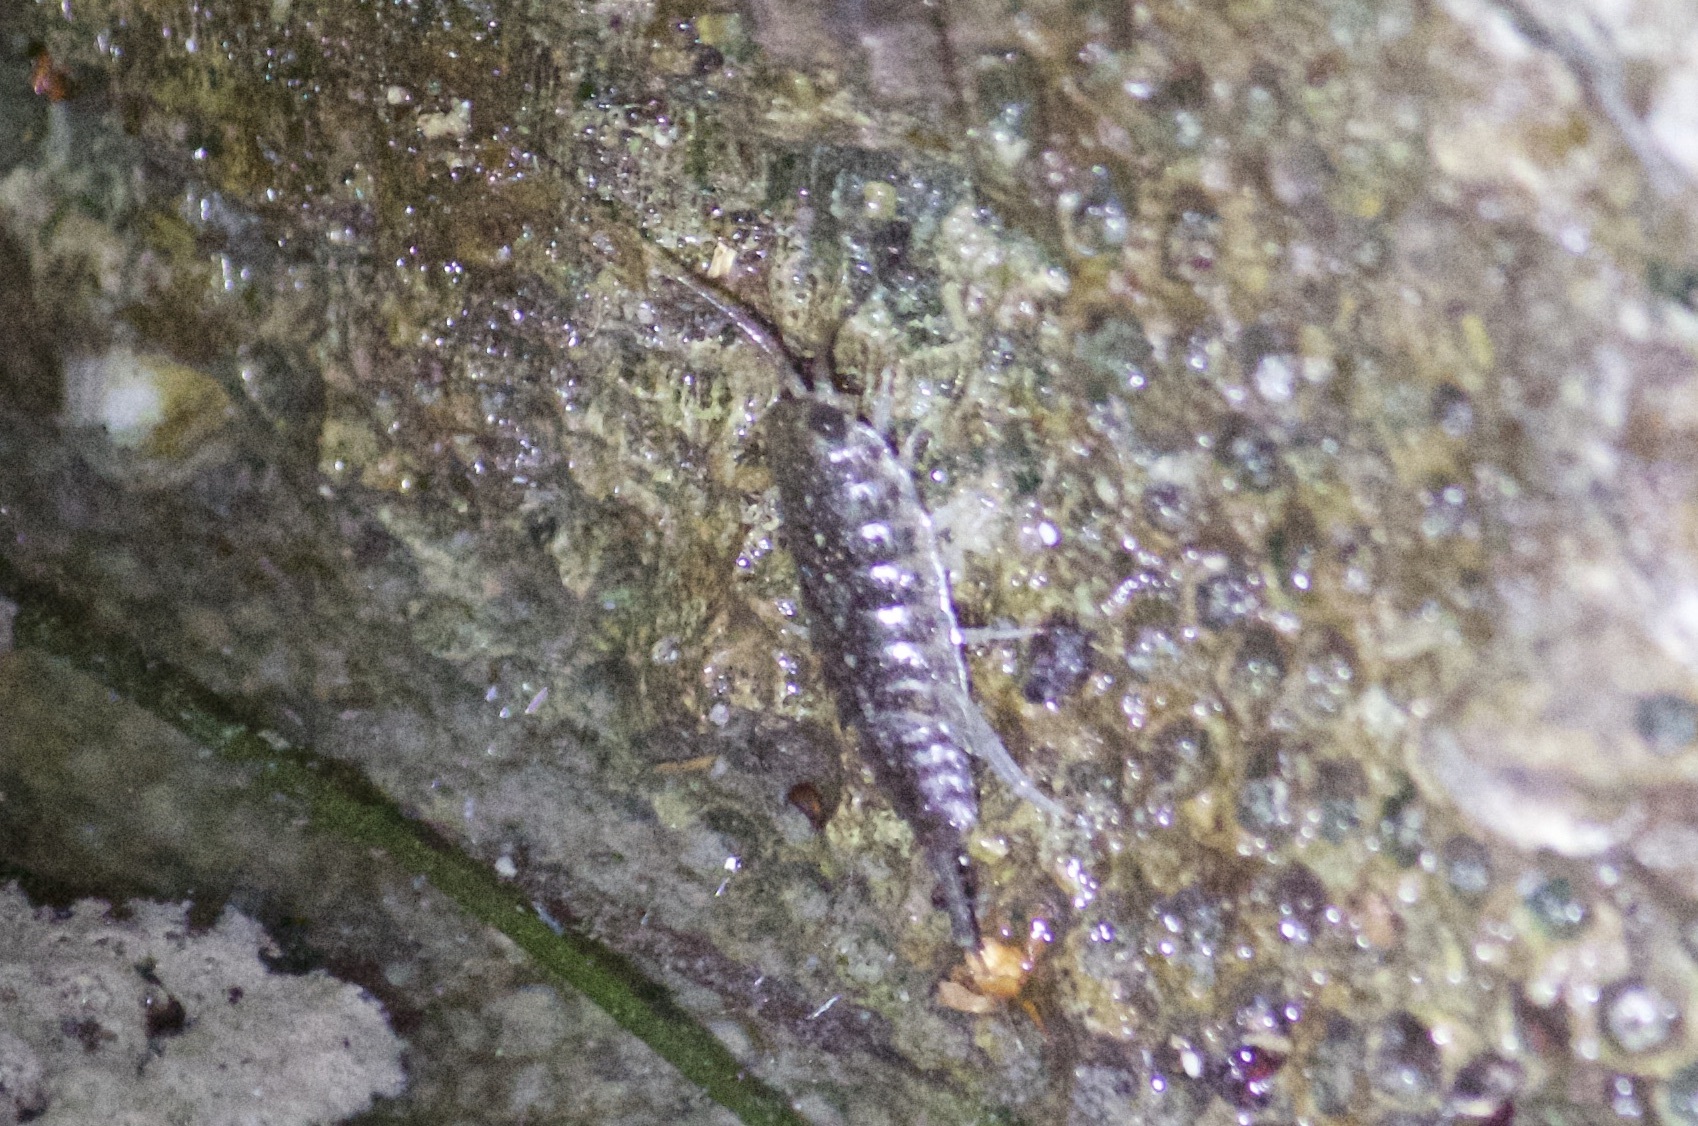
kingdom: Animalia
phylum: Arthropoda
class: Malacostraca
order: Isopoda
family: Ligiidae
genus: Ligia
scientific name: Ligia exotica
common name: Wharf roach
